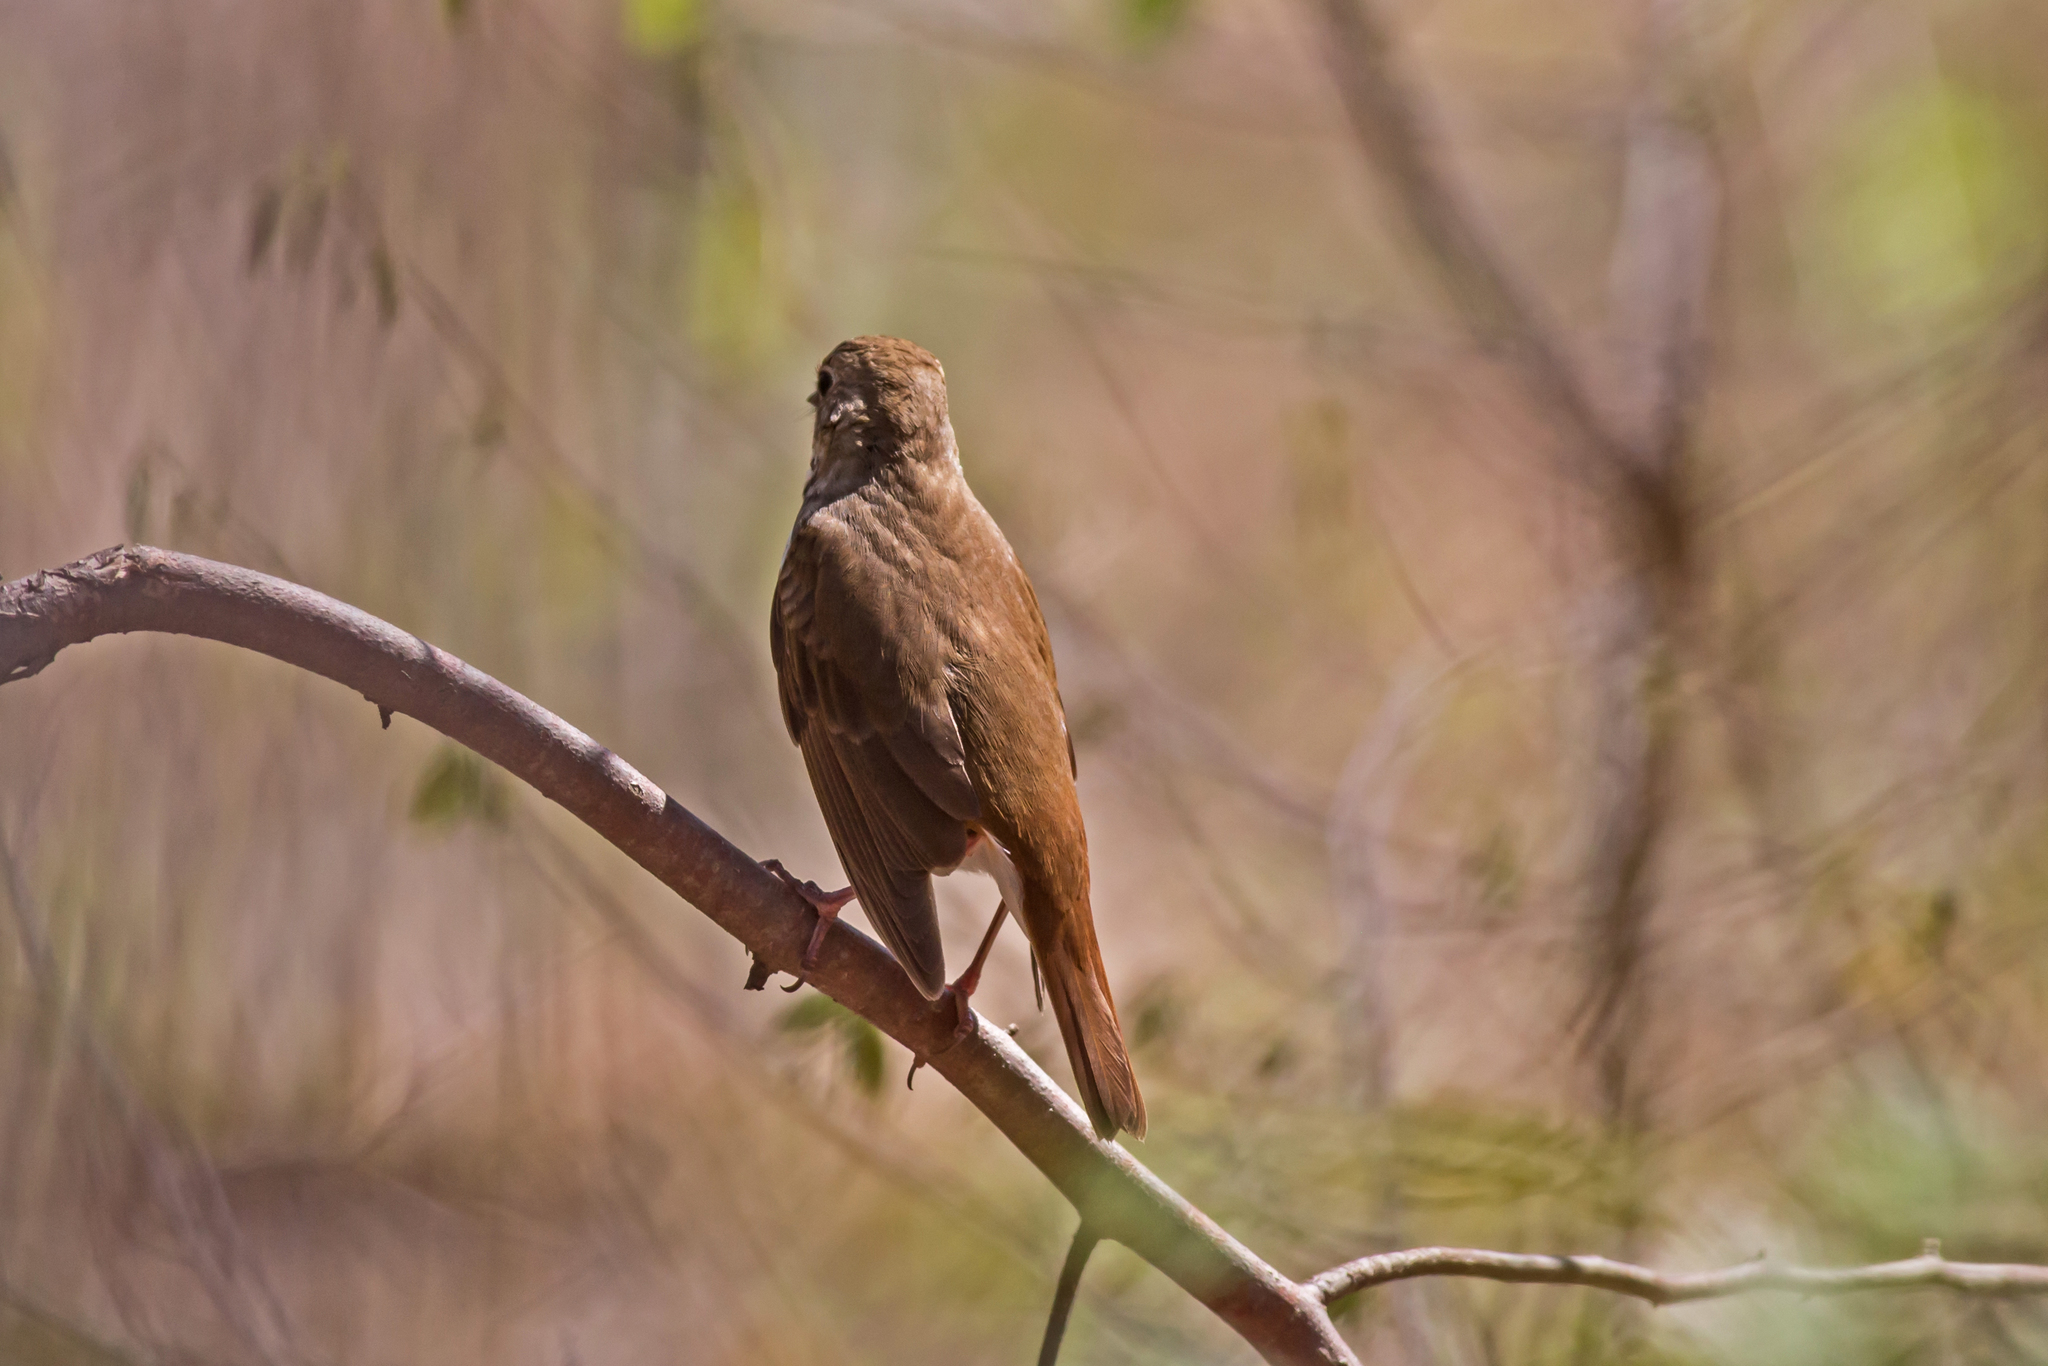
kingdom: Animalia
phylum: Chordata
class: Aves
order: Passeriformes
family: Turdidae
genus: Catharus
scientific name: Catharus guttatus
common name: Hermit thrush
